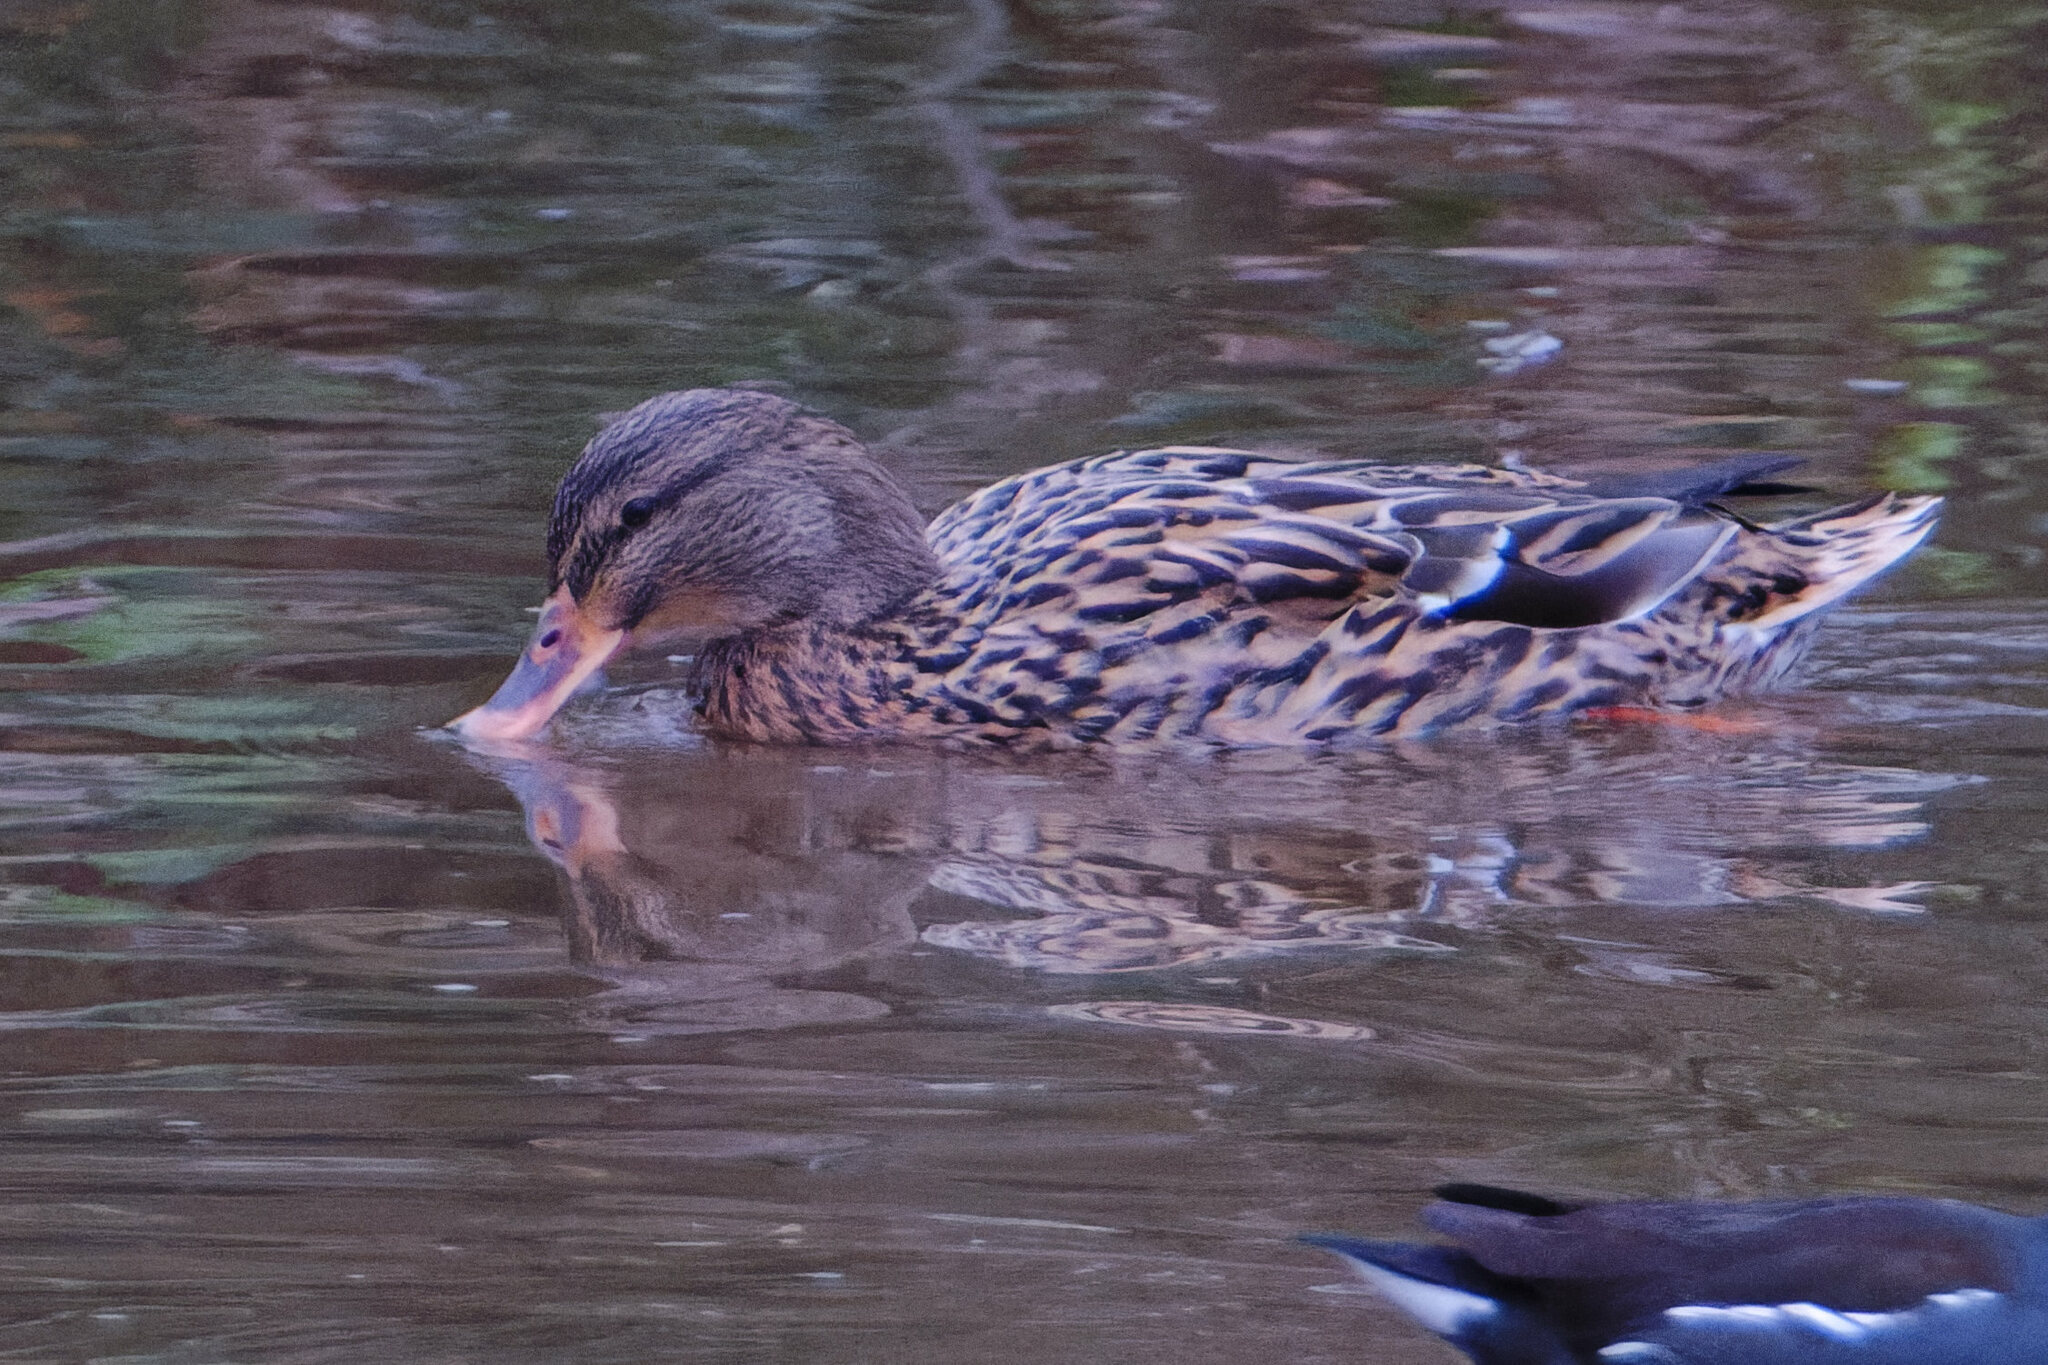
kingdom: Animalia
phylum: Chordata
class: Aves
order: Anseriformes
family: Anatidae
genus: Anas
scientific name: Anas platyrhynchos
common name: Mallard
